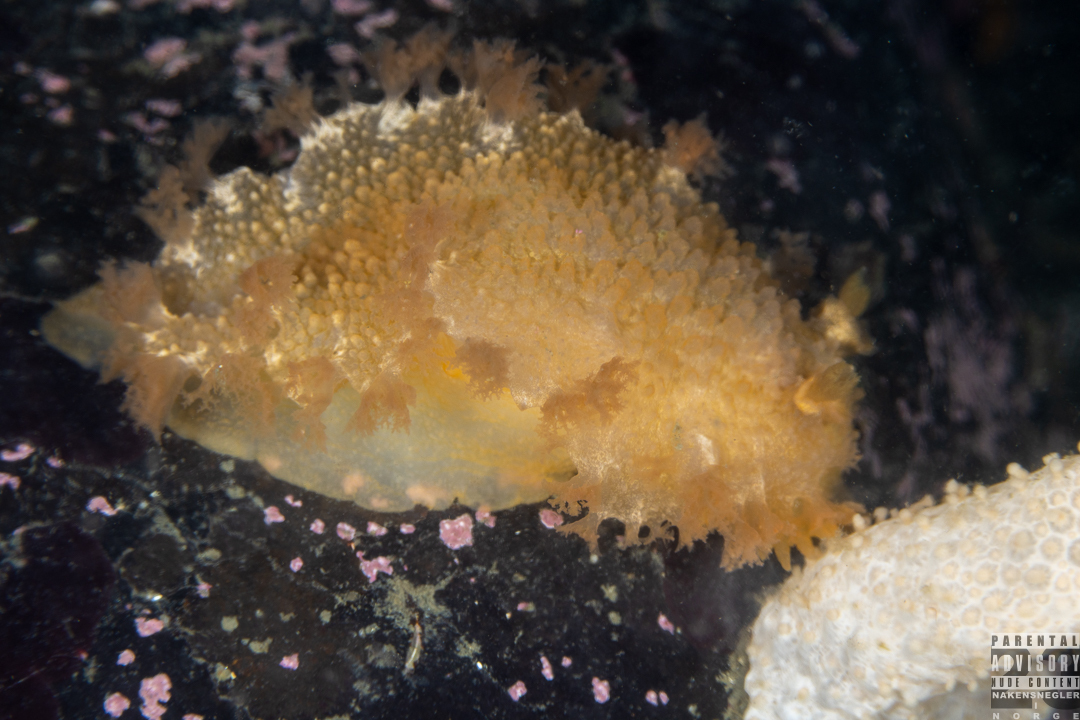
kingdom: Animalia
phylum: Mollusca
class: Gastropoda
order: Nudibranchia
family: Tritoniidae
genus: Tritonia
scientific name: Tritonia hombergii
